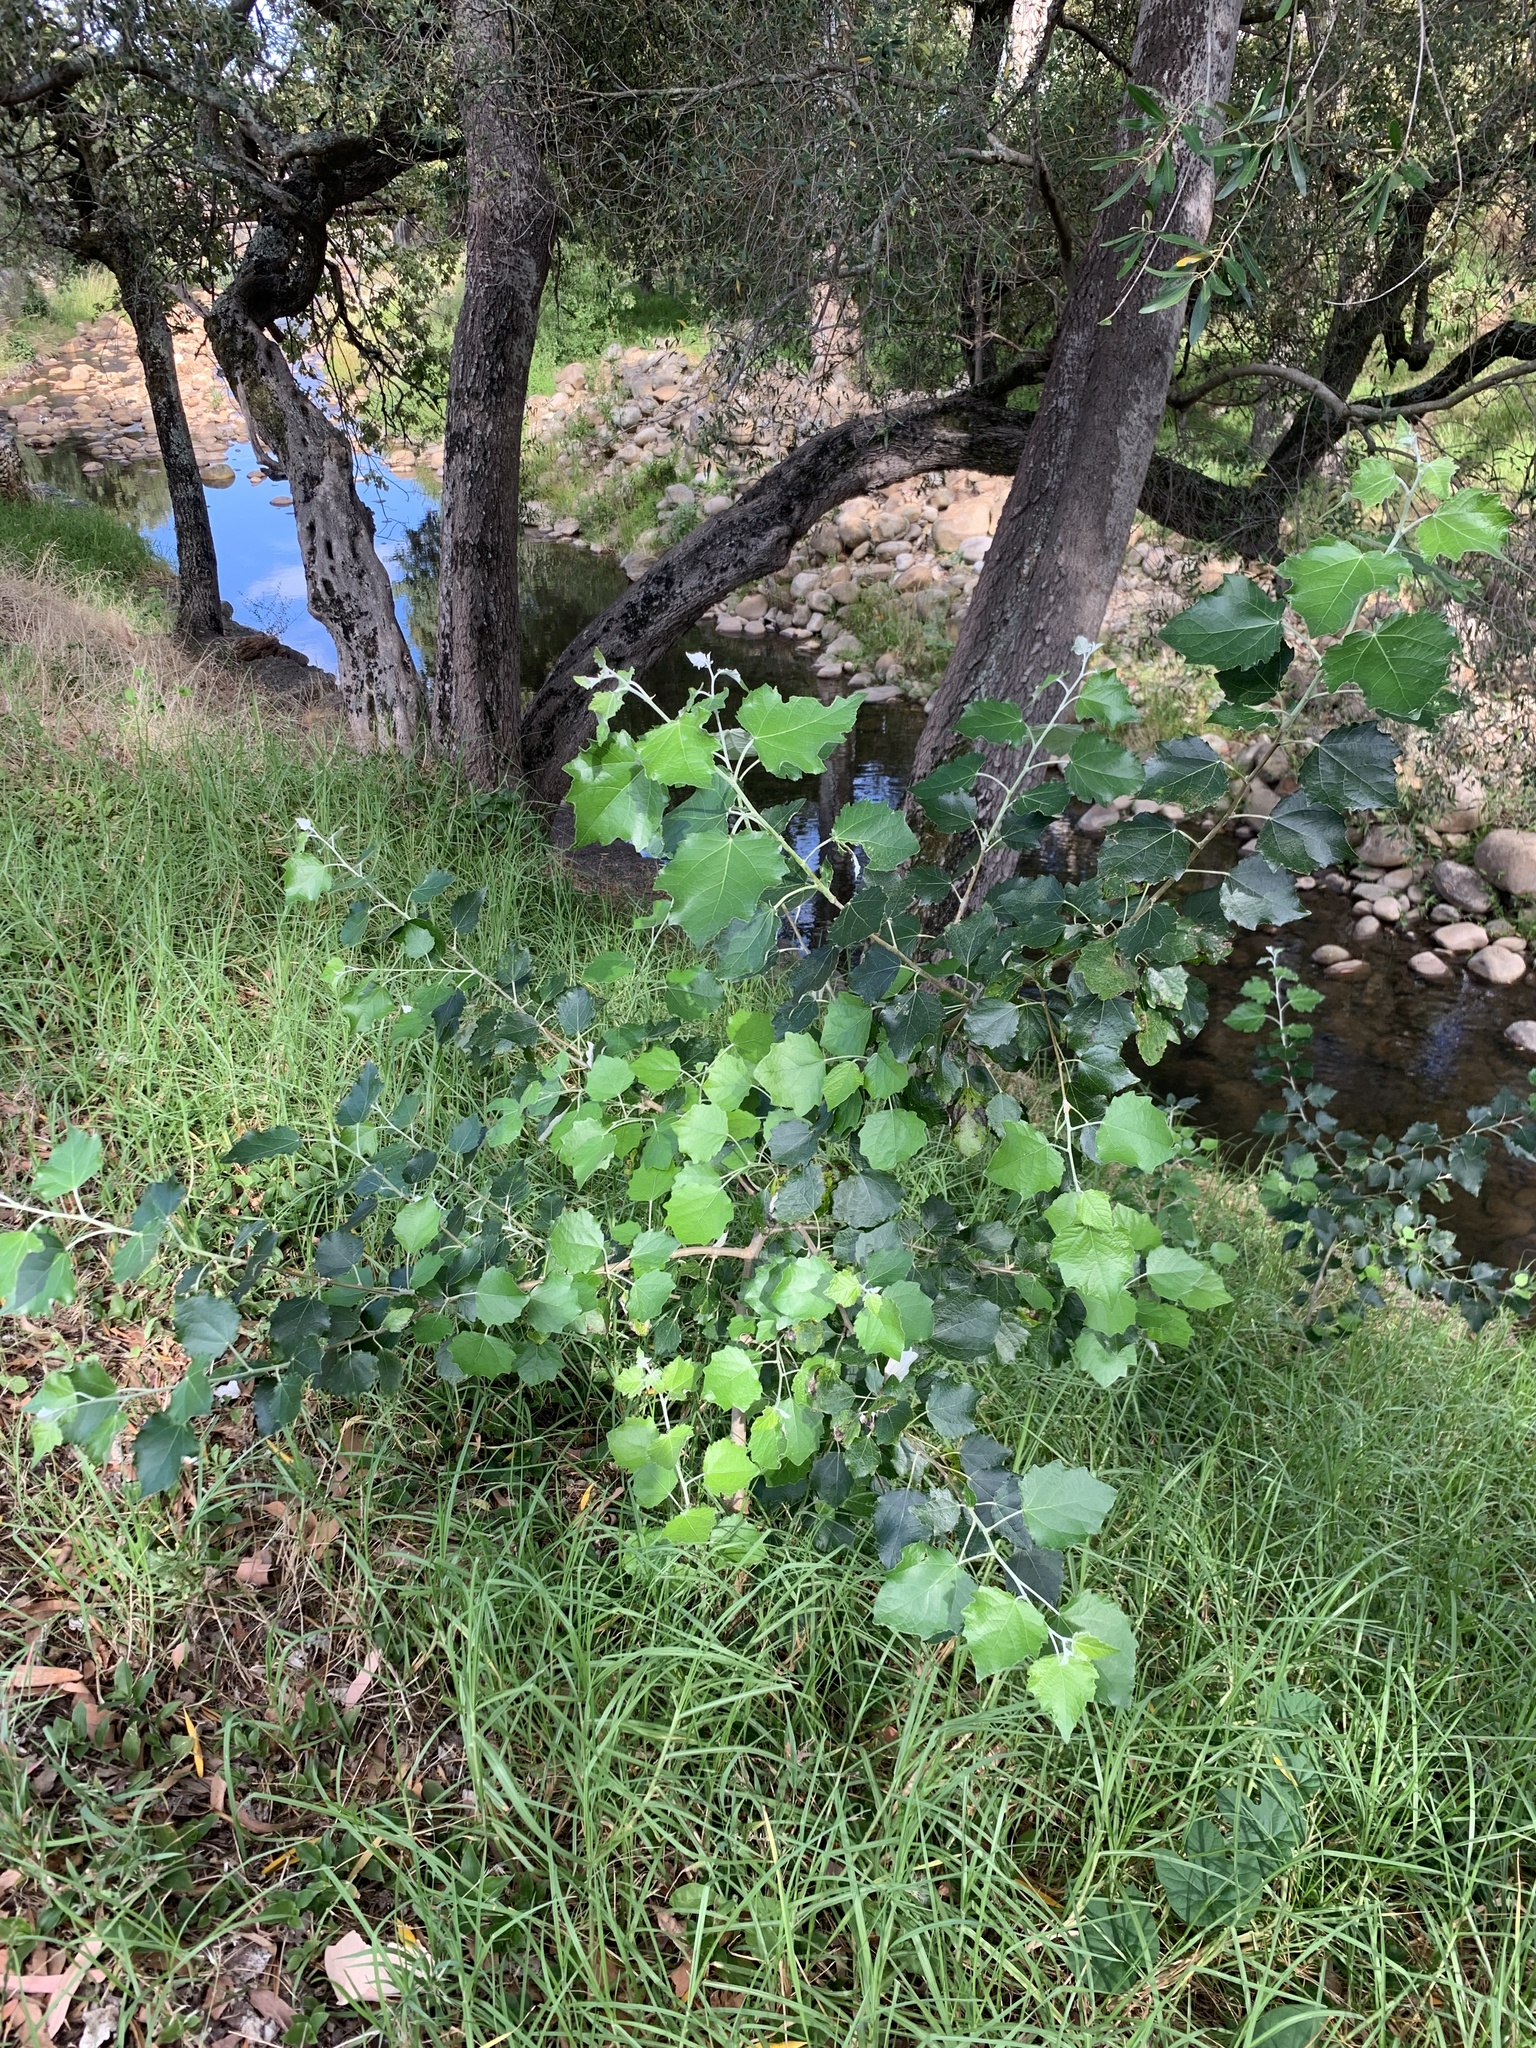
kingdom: Plantae
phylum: Tracheophyta
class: Magnoliopsida
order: Malpighiales
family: Salicaceae
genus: Populus
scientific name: Populus canescens
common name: Gray poplar
